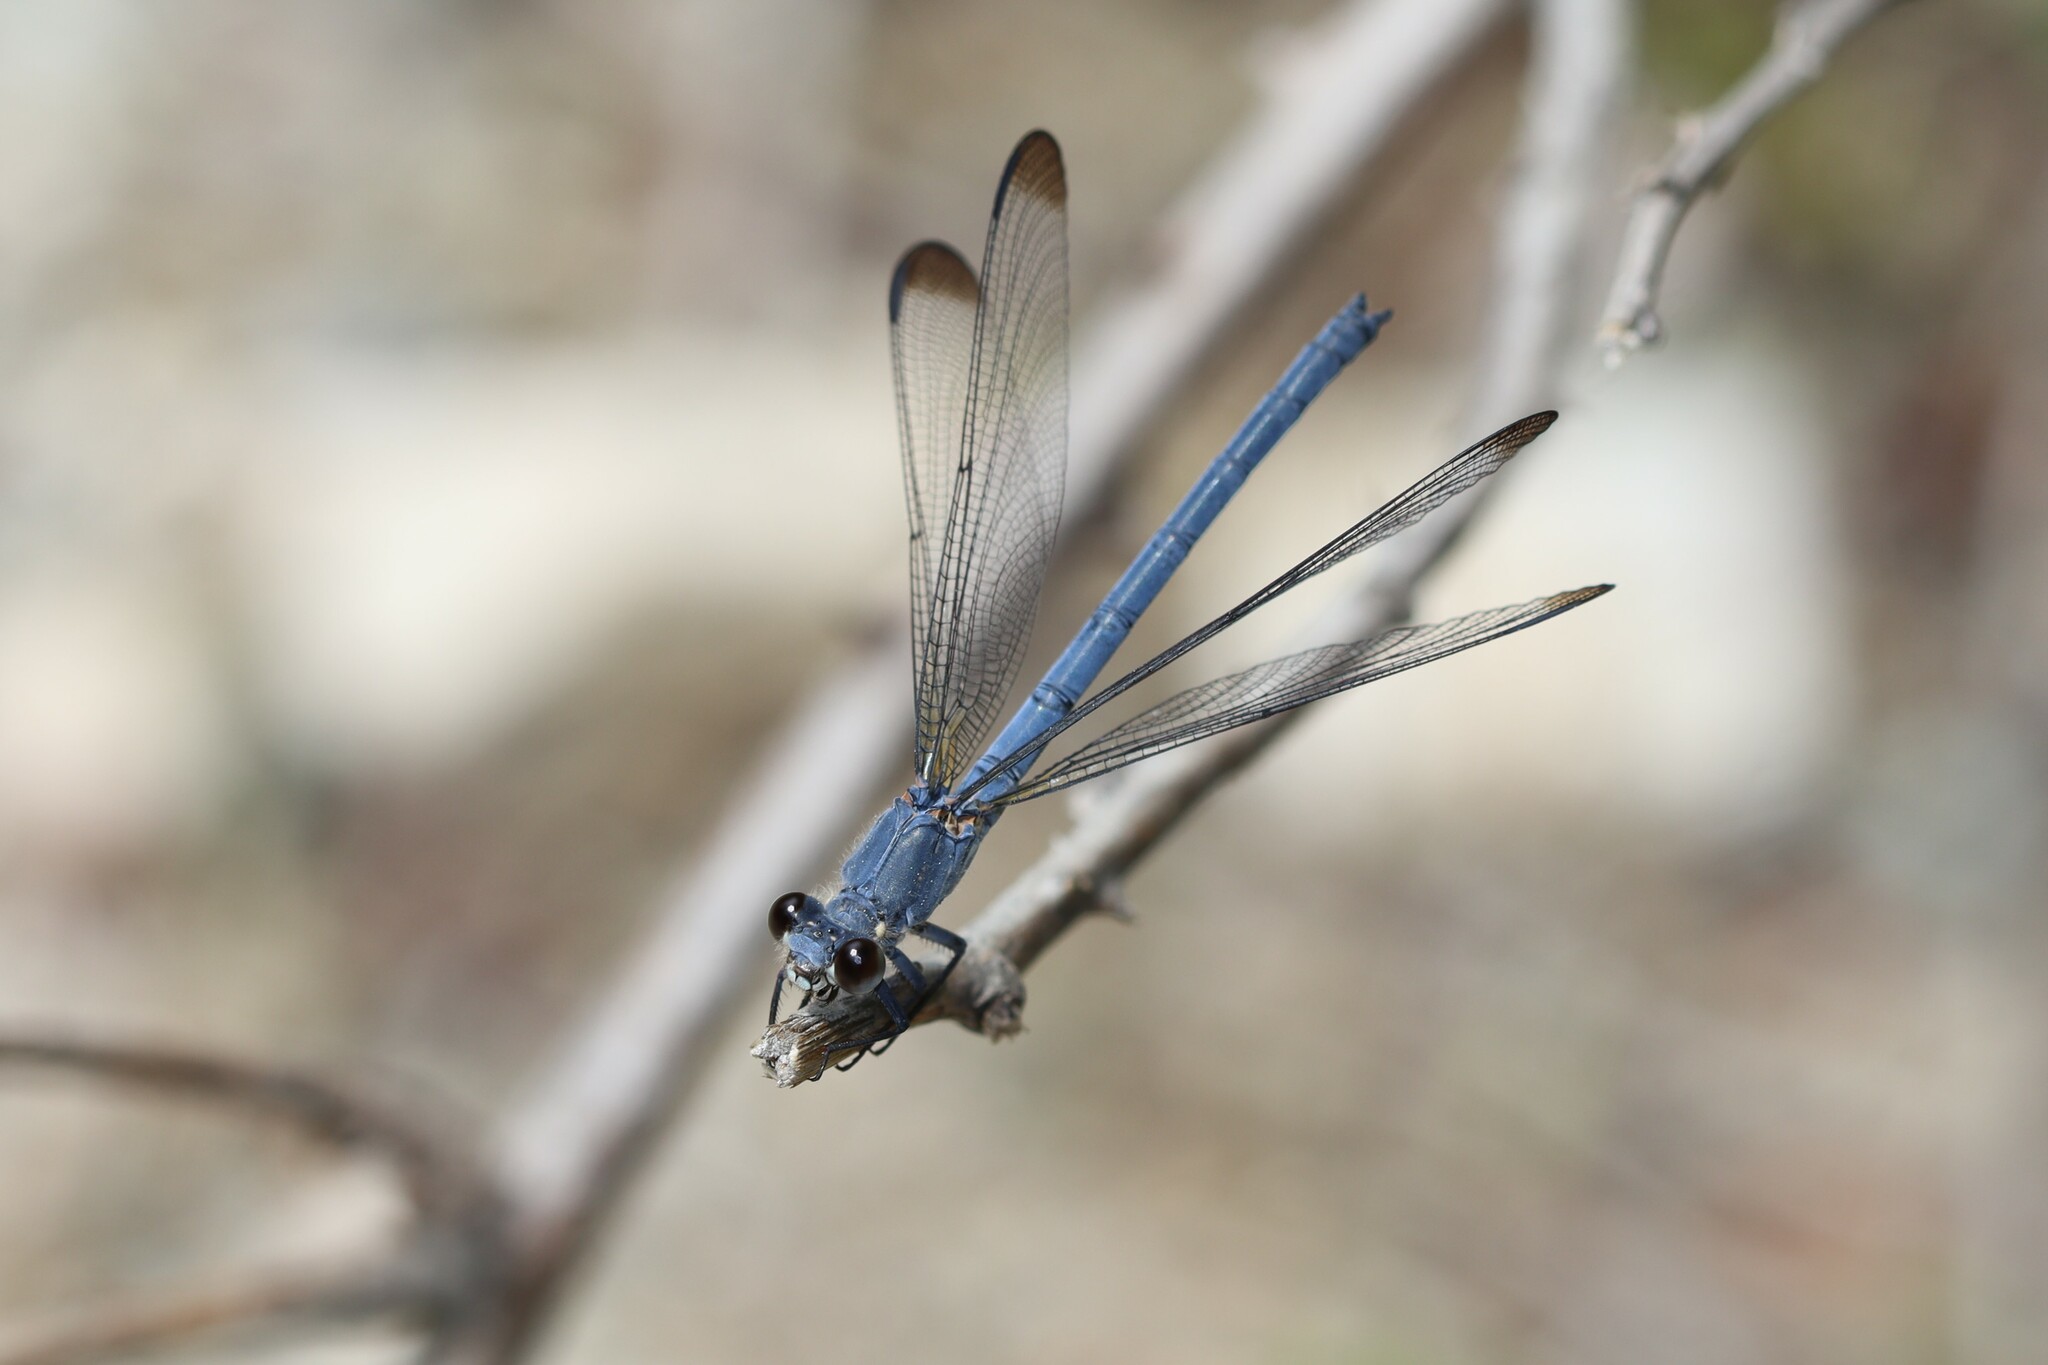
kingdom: Animalia
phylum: Arthropoda
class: Insecta
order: Odonata
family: Euphaeidae
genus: Epallage
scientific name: Epallage fatime
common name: Odalisque
